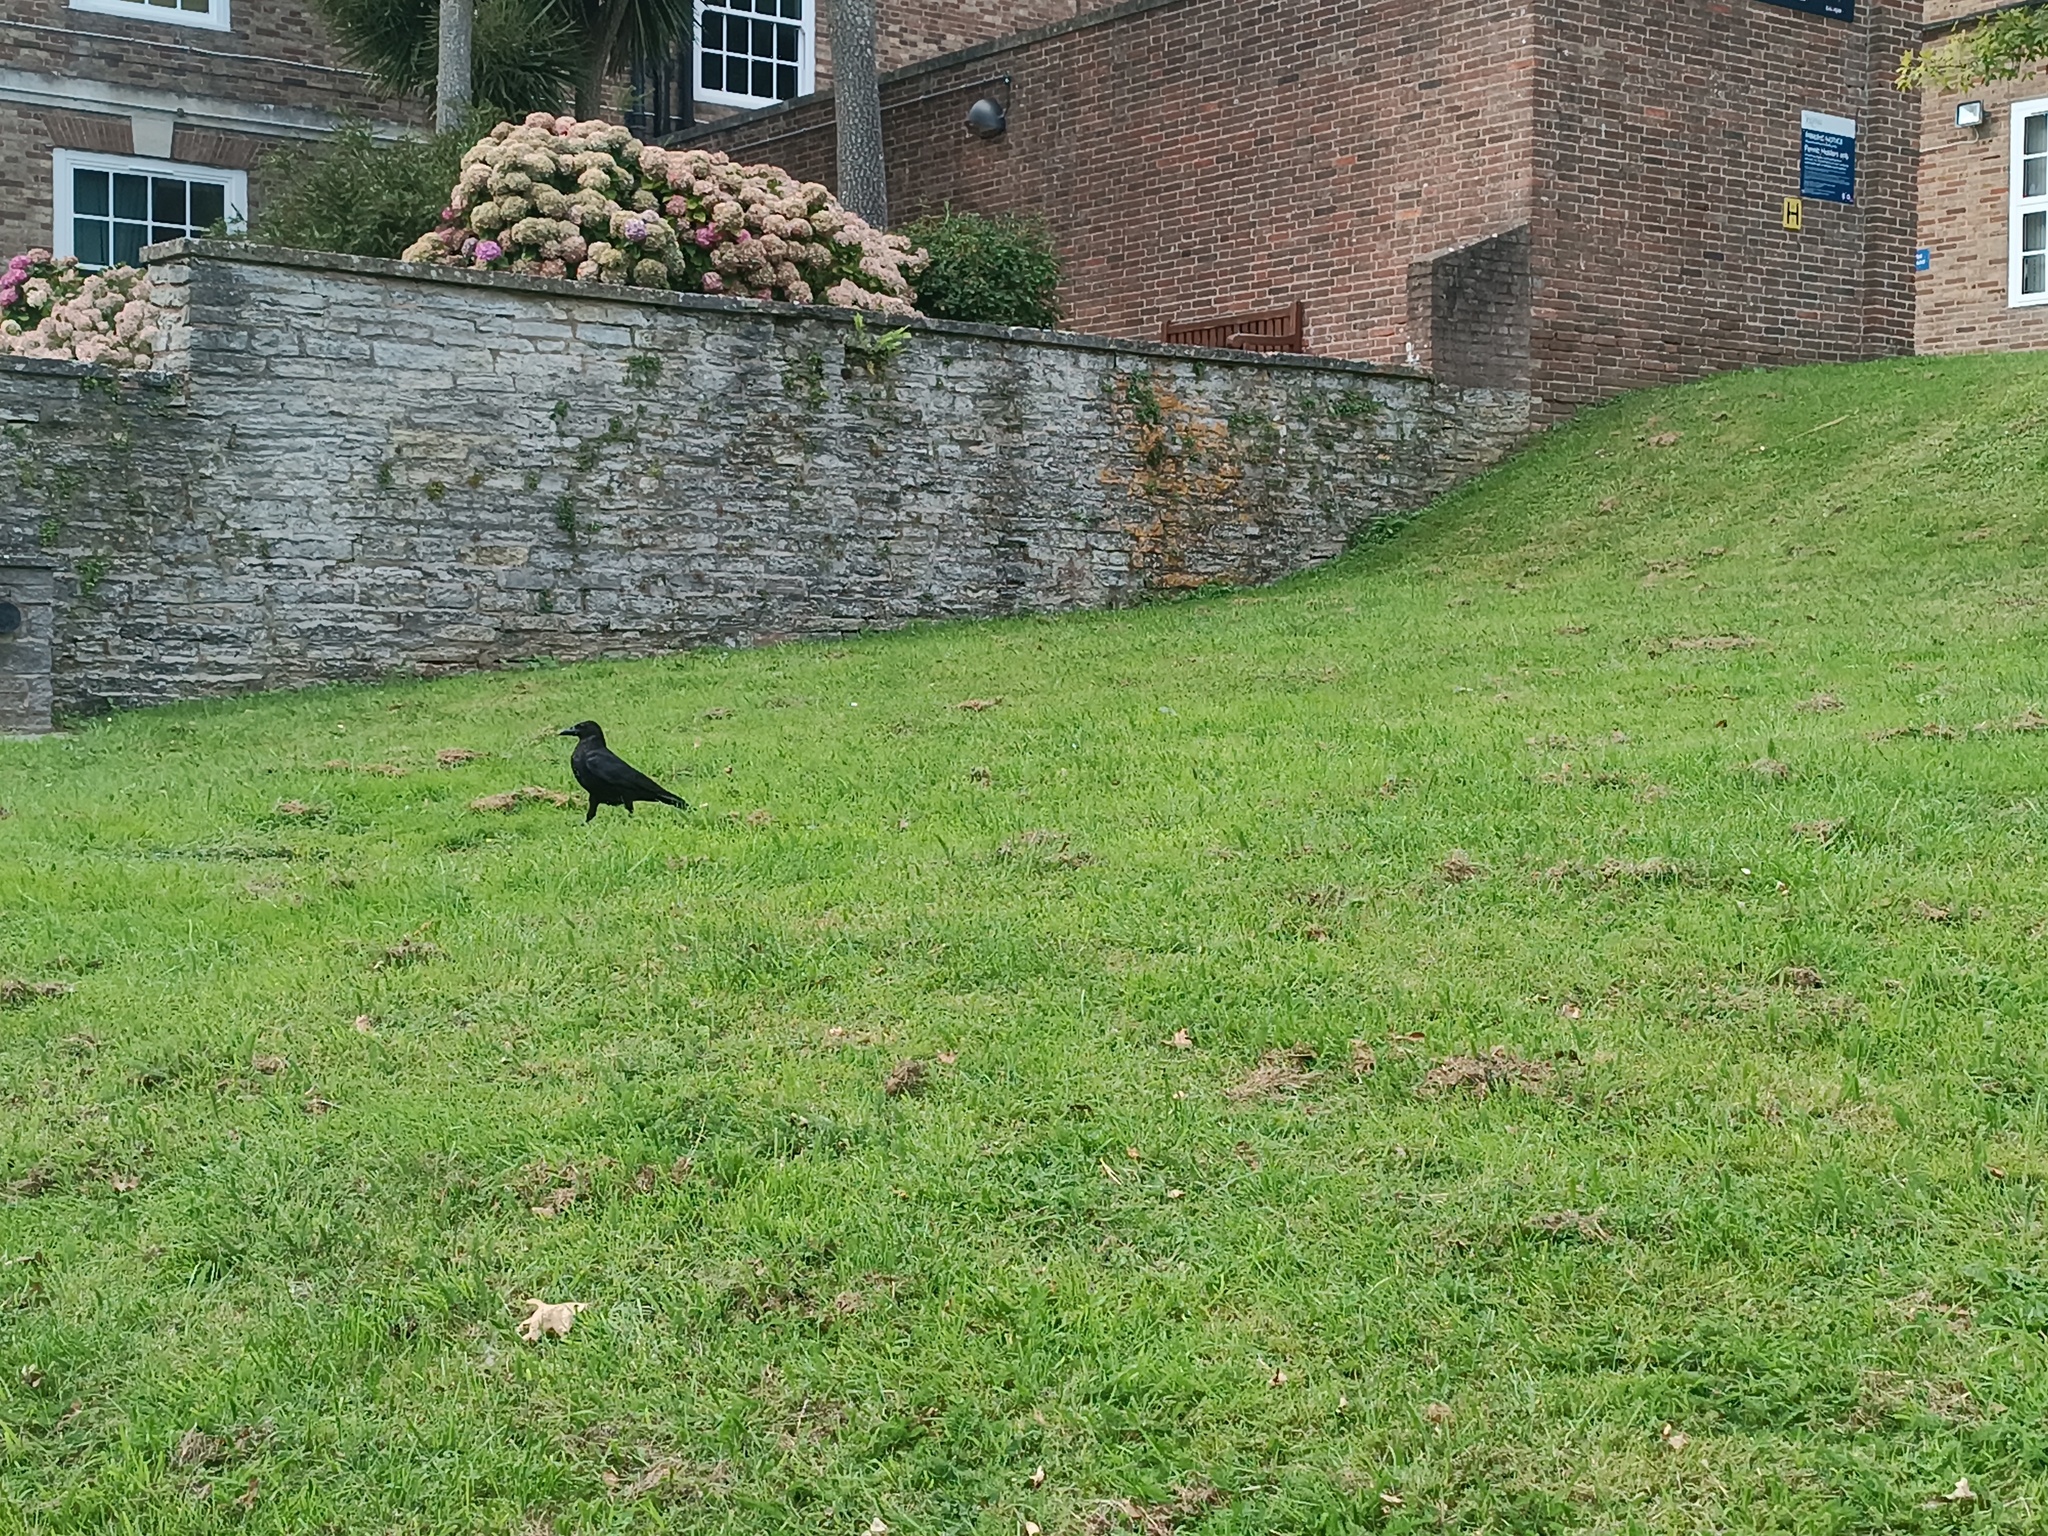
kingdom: Animalia
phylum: Chordata
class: Aves
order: Passeriformes
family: Corvidae
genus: Corvus
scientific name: Corvus corone
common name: Carrion crow
